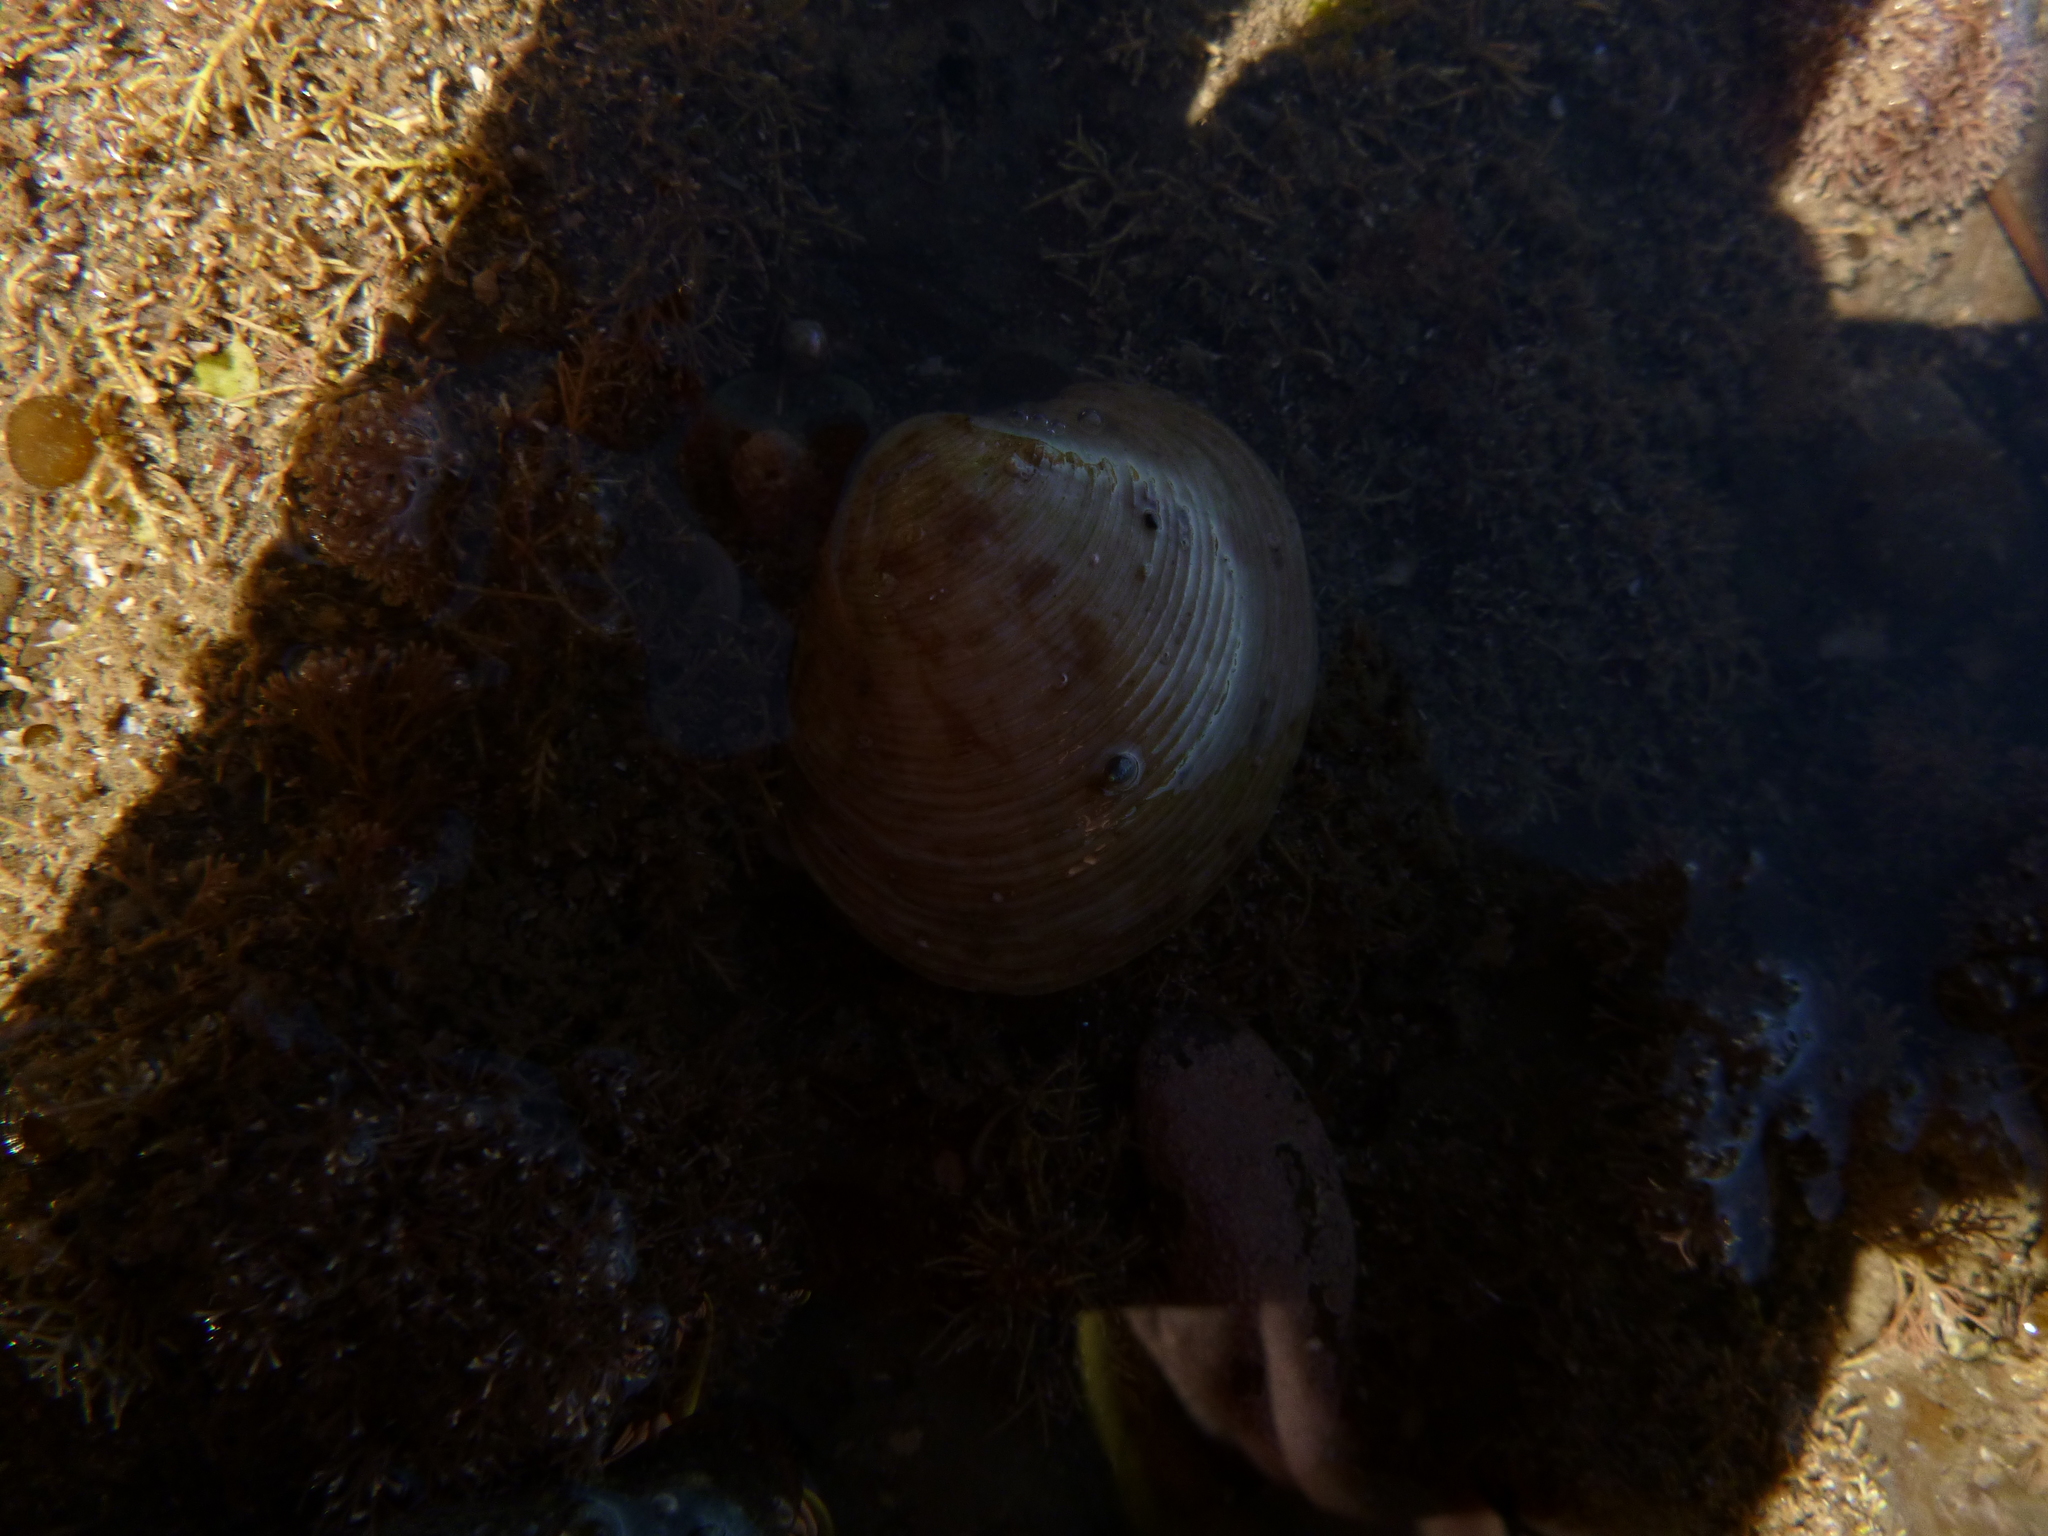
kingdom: Animalia
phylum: Mollusca
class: Bivalvia
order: Venerida
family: Veneridae
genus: Dosina
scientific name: Dosina mactracea
